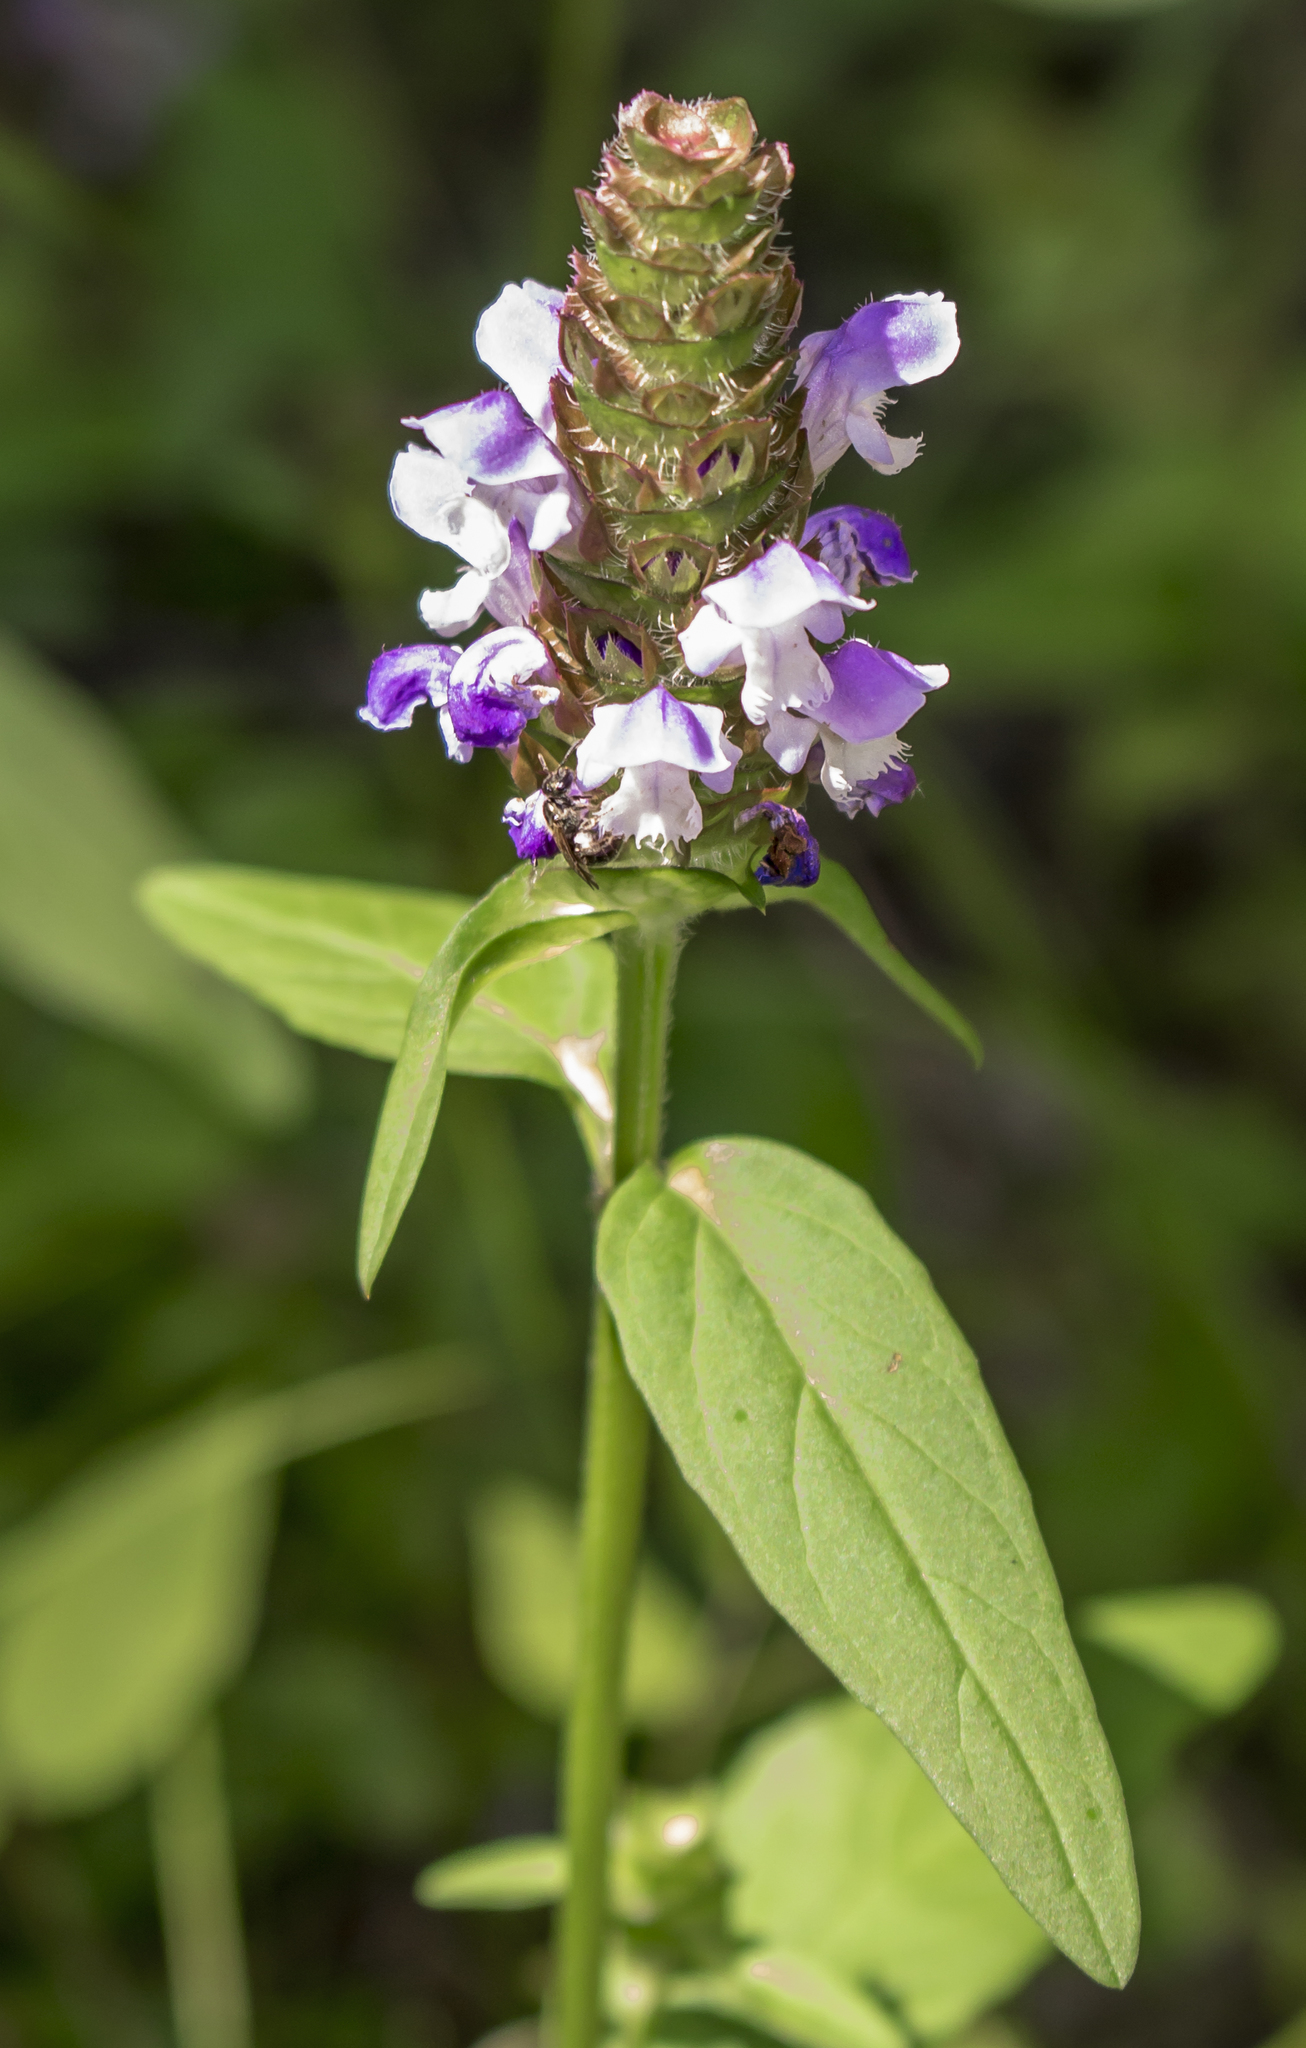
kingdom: Plantae
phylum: Tracheophyta
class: Magnoliopsida
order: Lamiales
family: Lamiaceae
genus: Prunella
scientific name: Prunella vulgaris
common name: Heal-all
